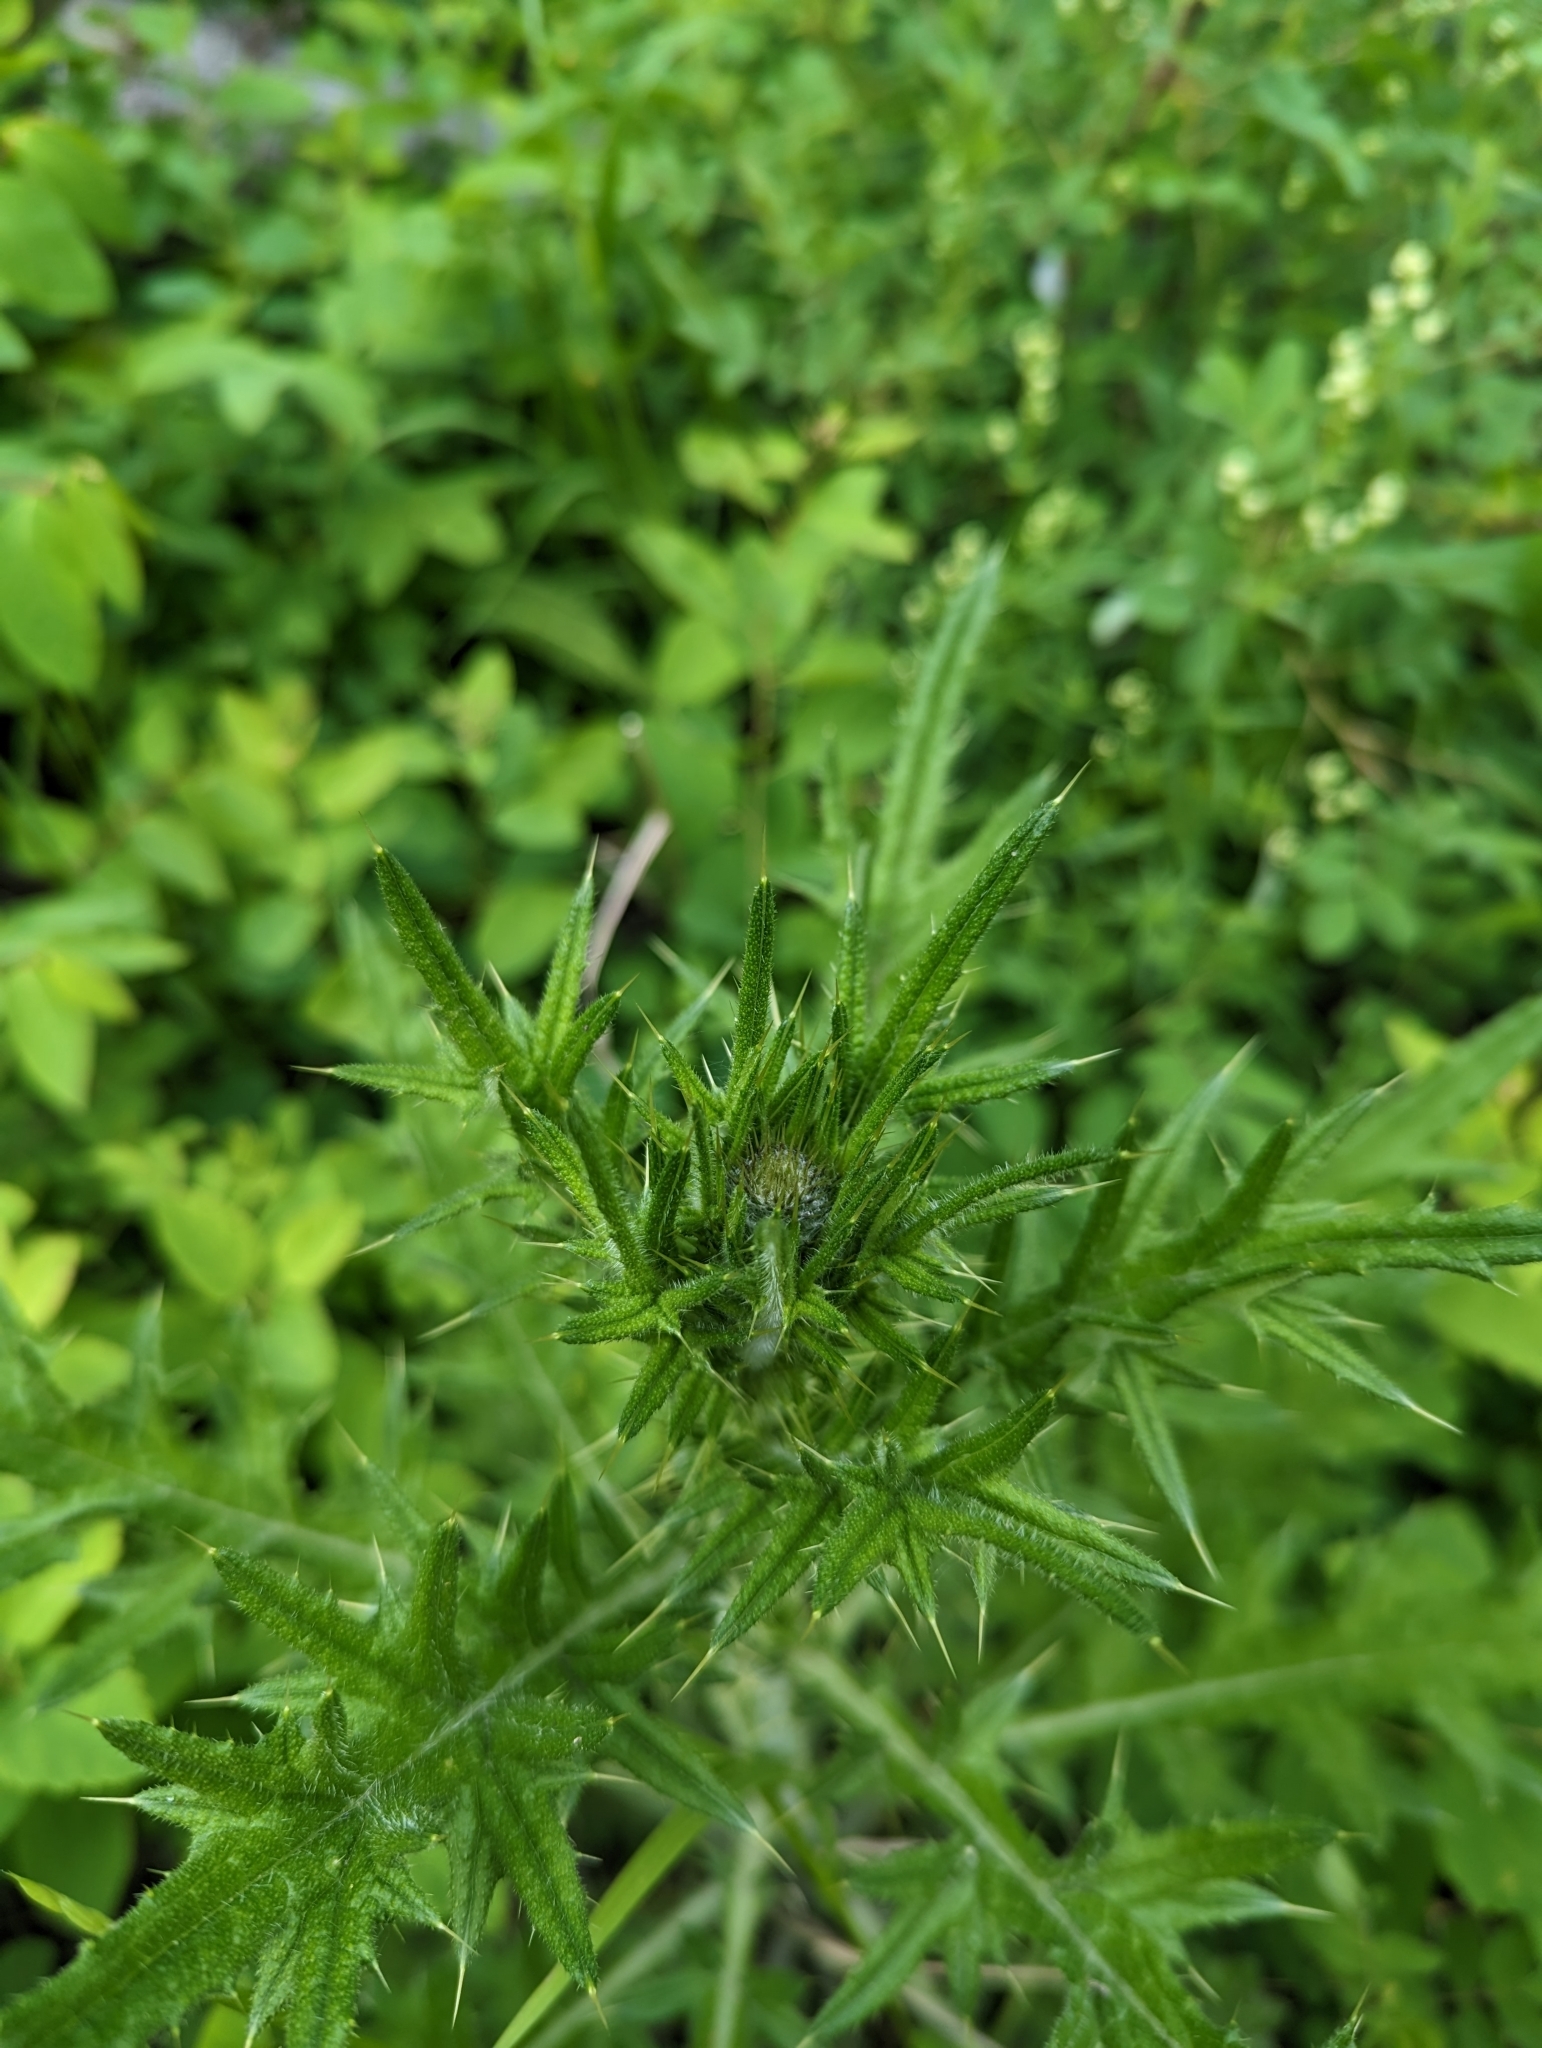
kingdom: Plantae
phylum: Tracheophyta
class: Magnoliopsida
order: Asterales
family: Asteraceae
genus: Cirsium
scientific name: Cirsium vulgare
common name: Bull thistle
